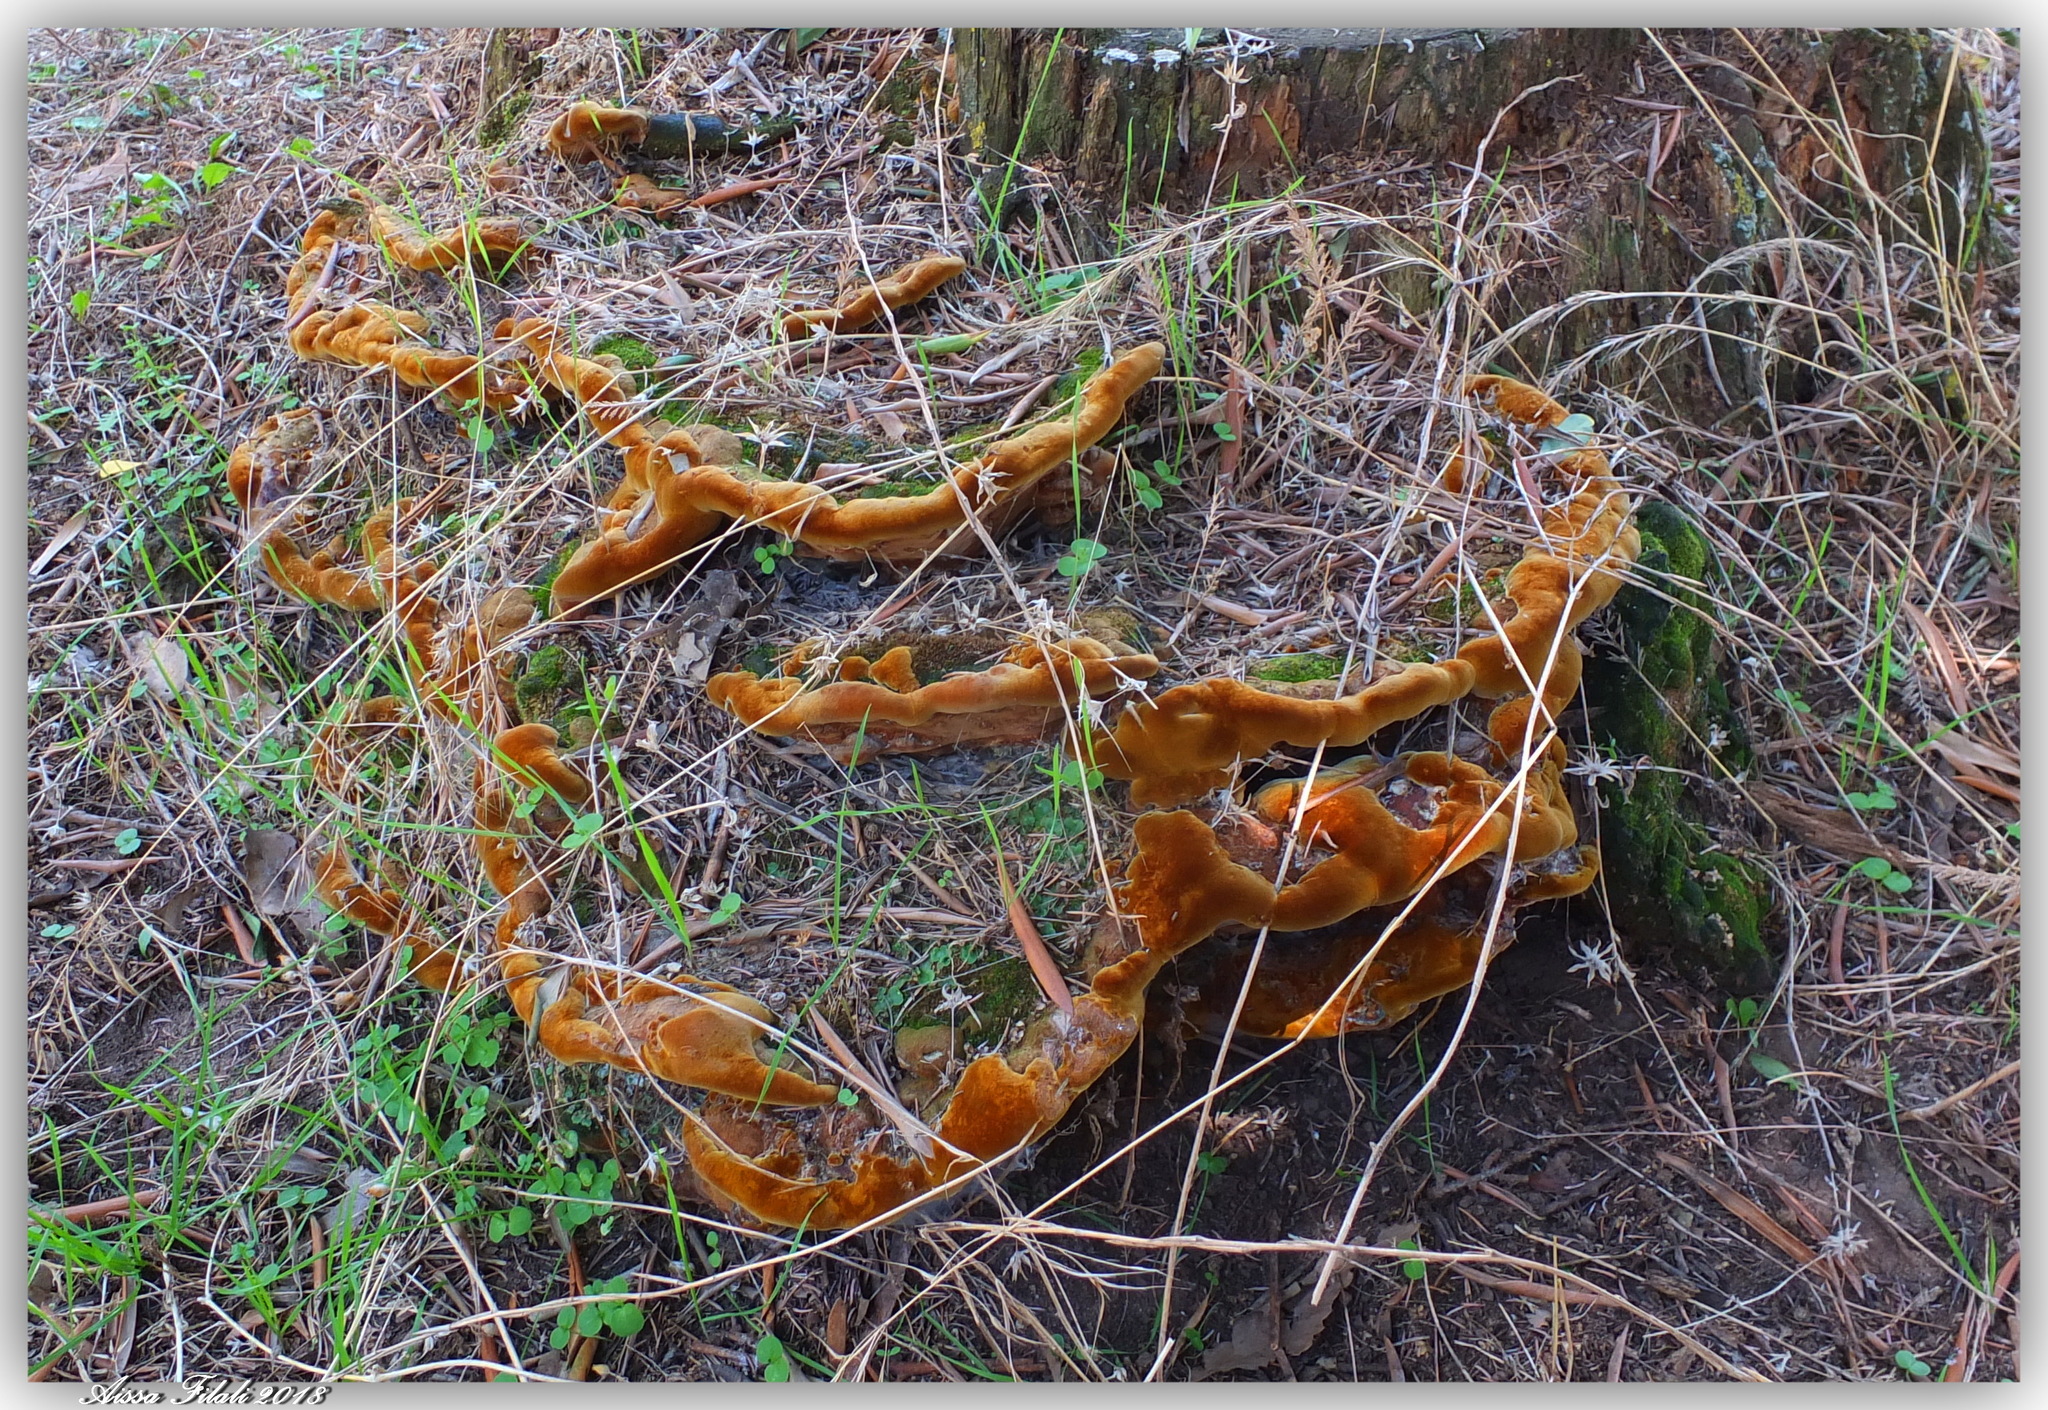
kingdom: Fungi
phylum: Basidiomycota
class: Agaricomycetes
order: Hymenochaetales
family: Hymenochaetaceae
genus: Fuscoporia
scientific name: Fuscoporia torulosa
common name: Tufted bracket
